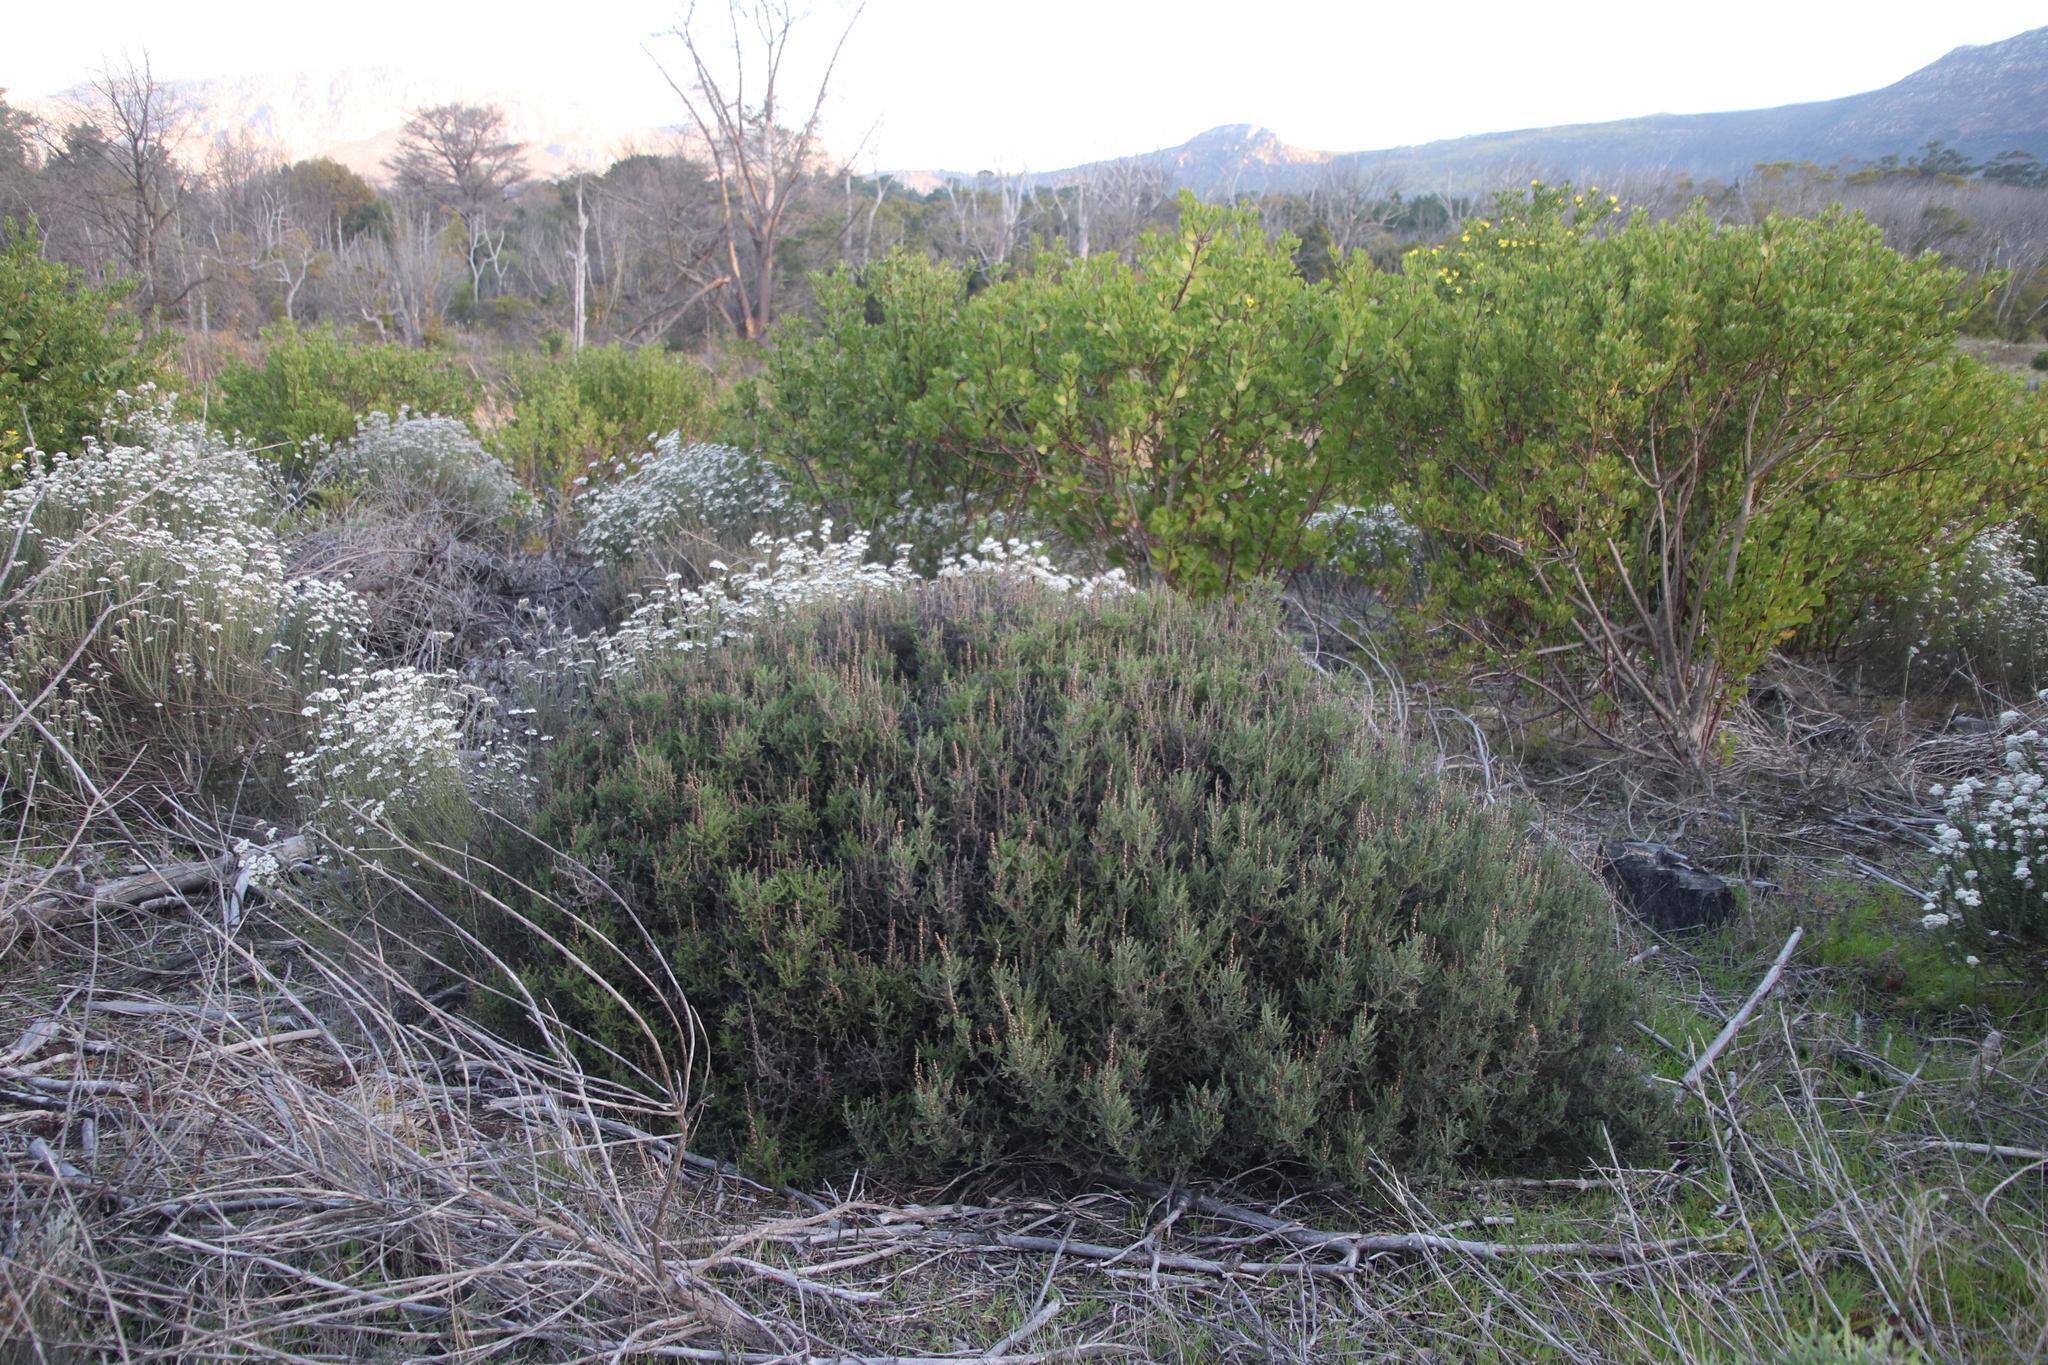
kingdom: Plantae
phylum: Tracheophyta
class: Magnoliopsida
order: Asterales
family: Asteraceae
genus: Seriphium
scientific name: Seriphium cinereum
